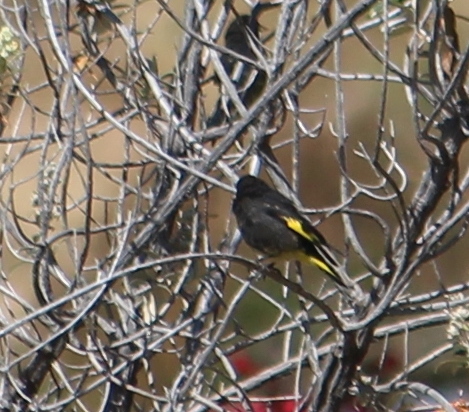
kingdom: Animalia
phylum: Chordata
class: Aves
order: Passeriformes
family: Fringillidae
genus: Spinus
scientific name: Spinus atratus
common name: Black siskin
